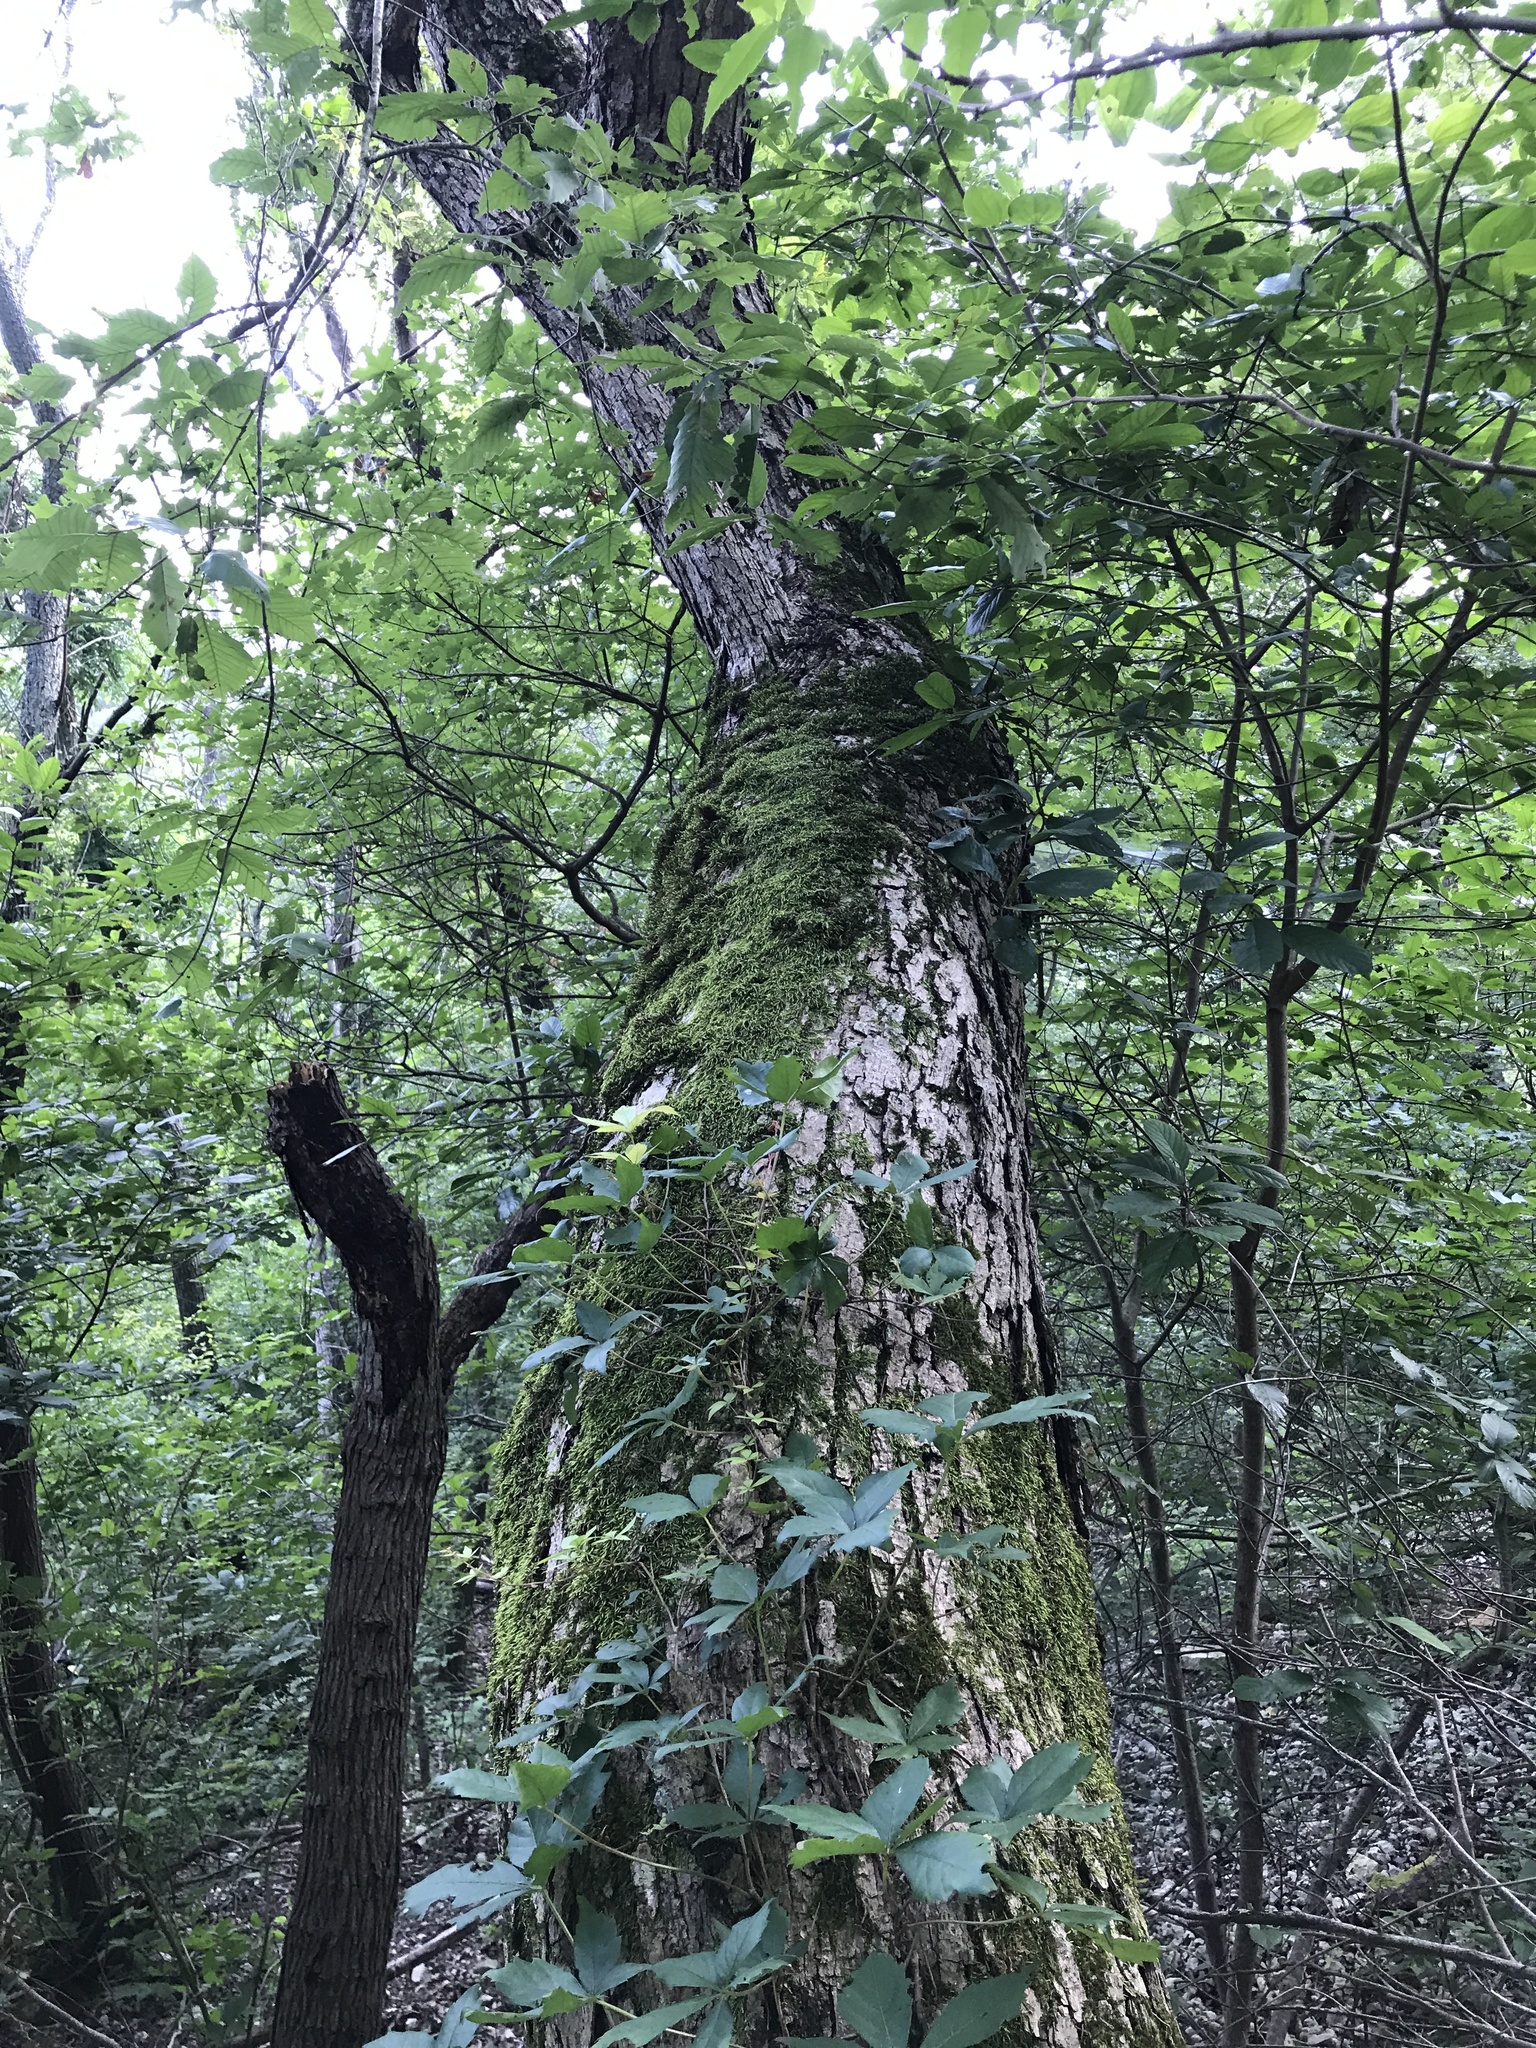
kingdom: Plantae
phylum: Tracheophyta
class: Magnoliopsida
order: Fagales
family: Fagaceae
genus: Quercus
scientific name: Quercus muehlenbergii
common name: Chinkapin oak
